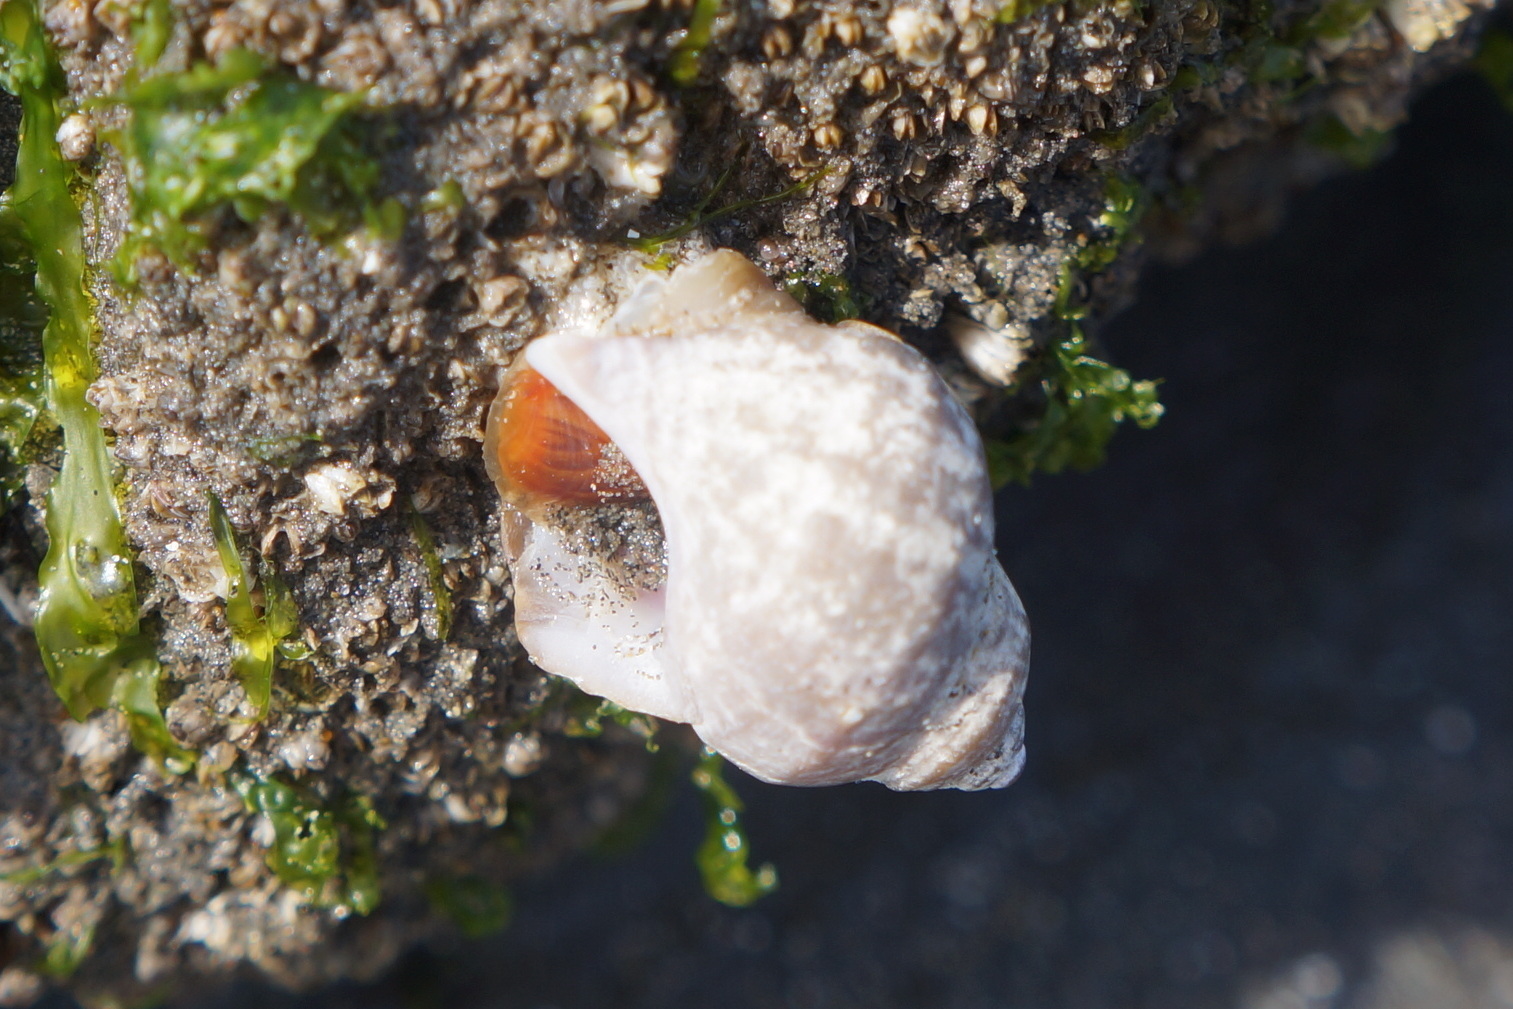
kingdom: Animalia
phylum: Mollusca
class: Gastropoda
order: Neogastropoda
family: Muricidae
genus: Nucella
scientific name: Nucella lamellosa
